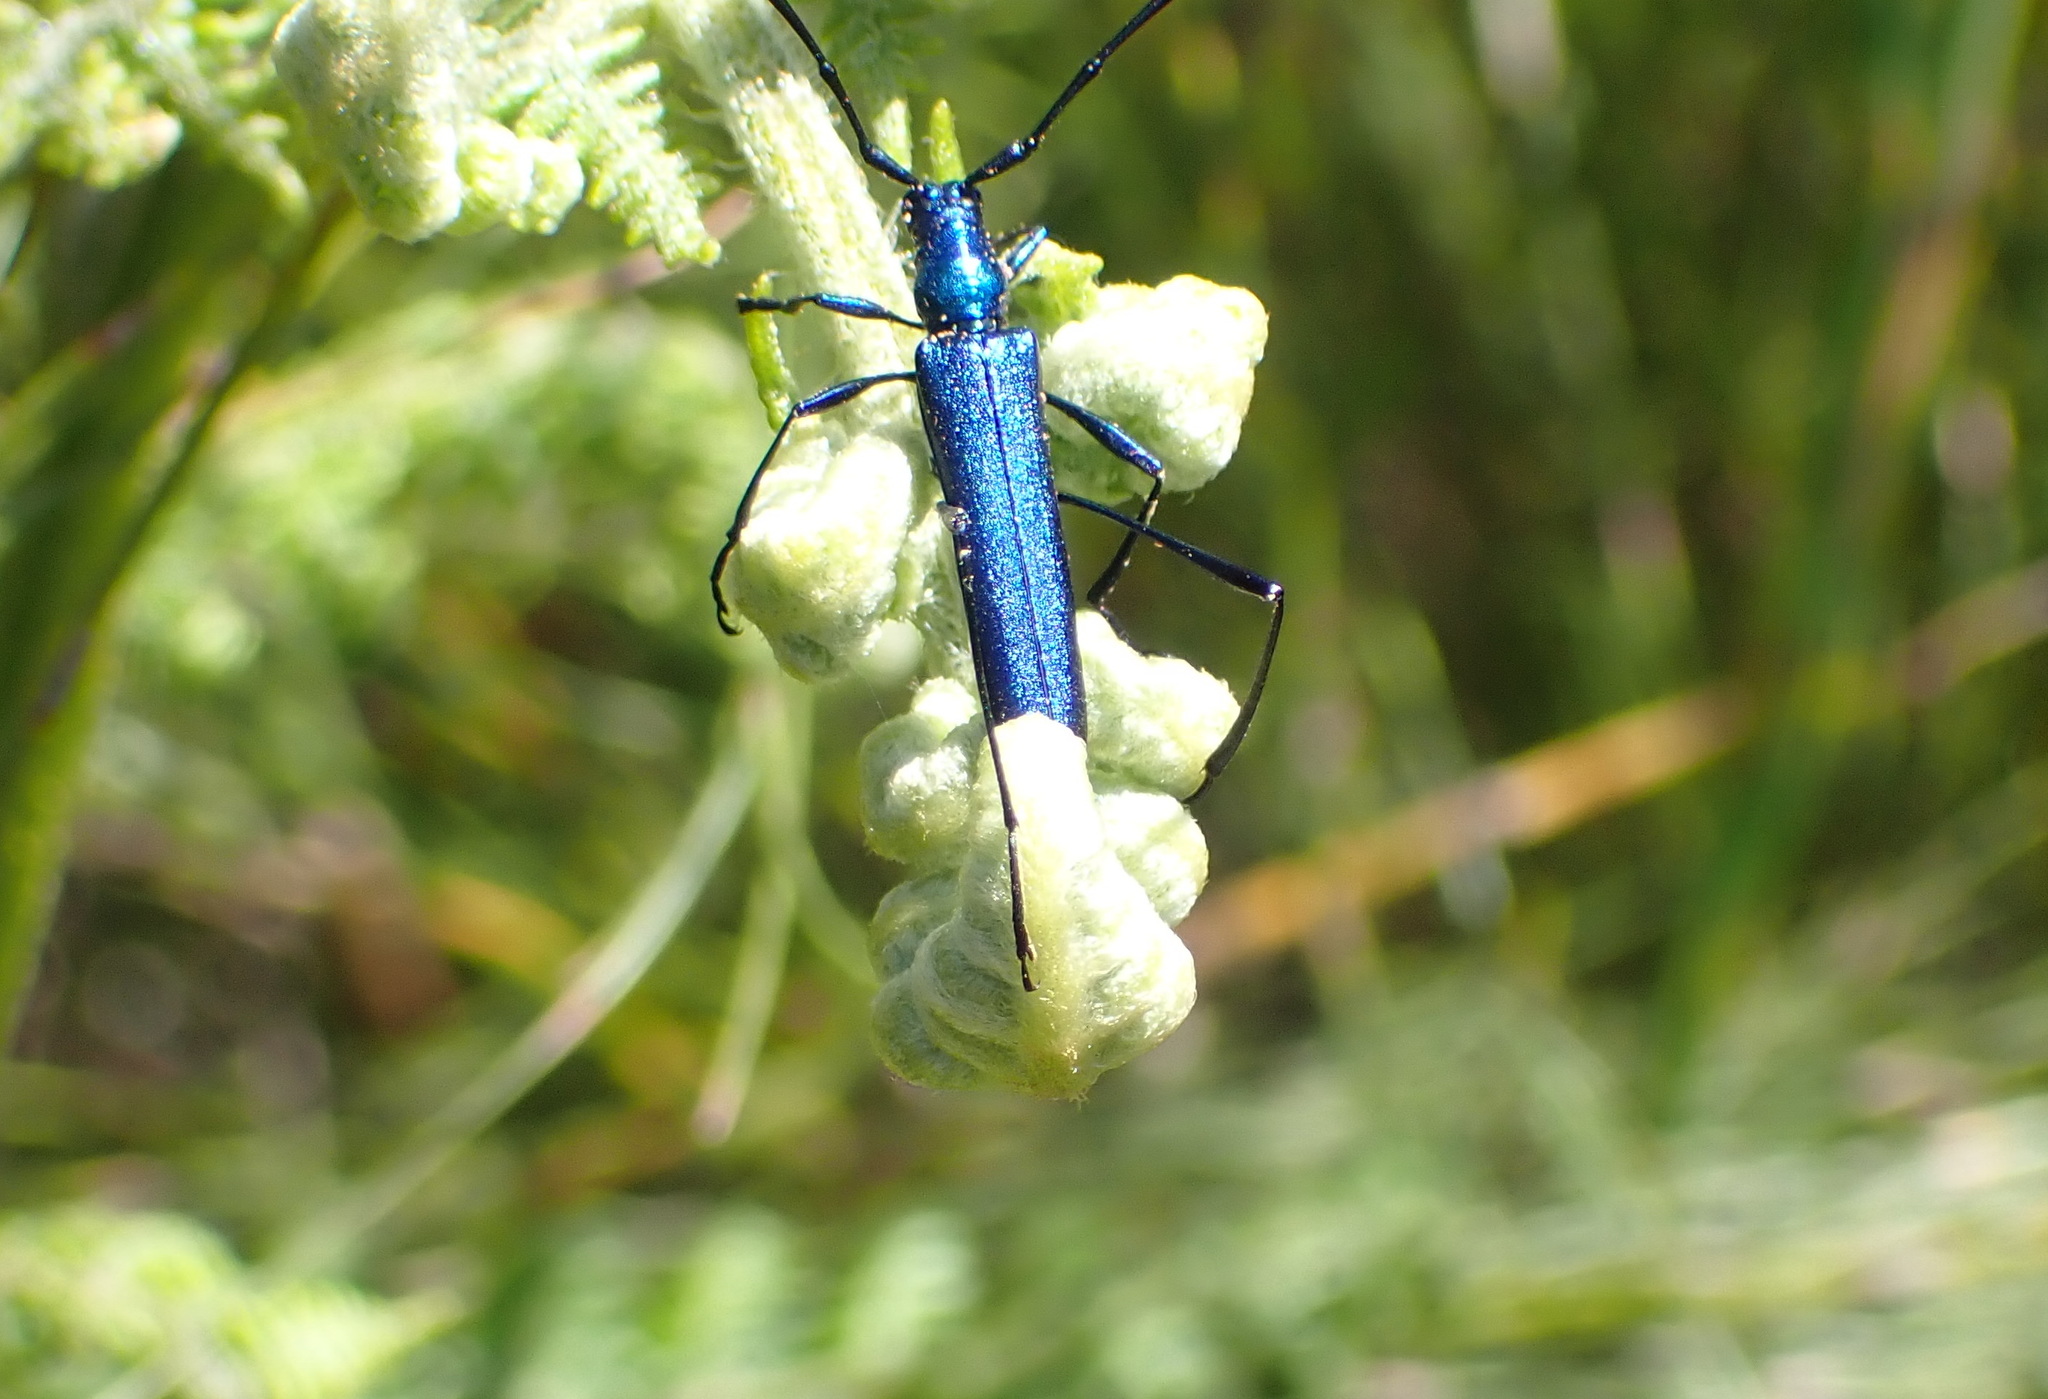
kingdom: Animalia
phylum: Arthropoda
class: Insecta
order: Coleoptera
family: Cerambycidae
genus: Promeces
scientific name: Promeces longipes
